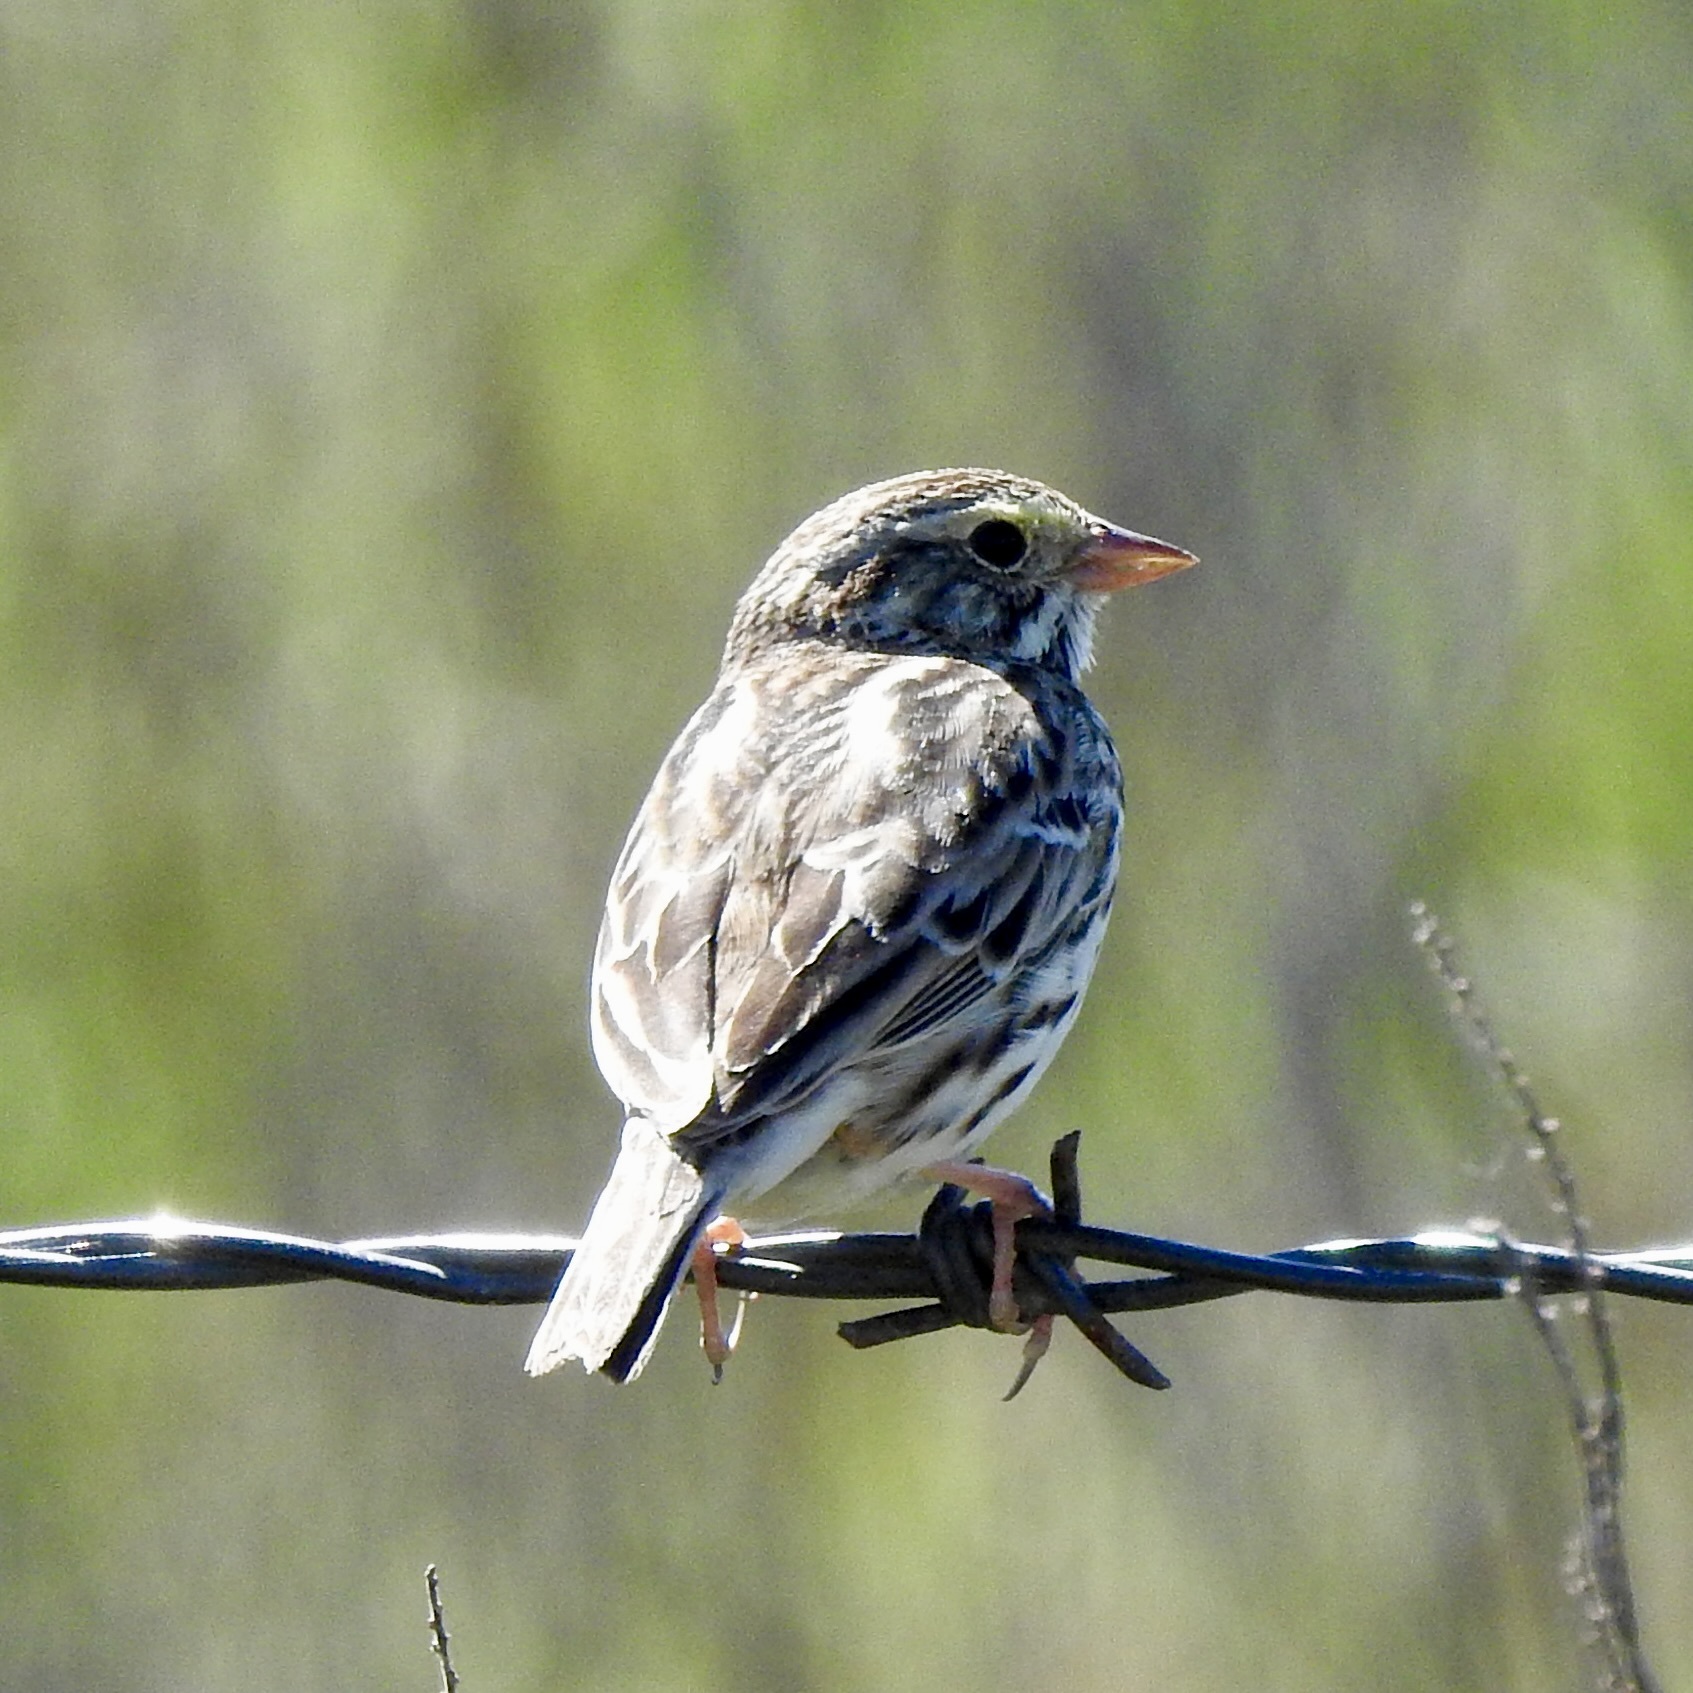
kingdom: Animalia
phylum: Chordata
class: Aves
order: Passeriformes
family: Passerellidae
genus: Passerculus
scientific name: Passerculus sandwichensis
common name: Savannah sparrow
